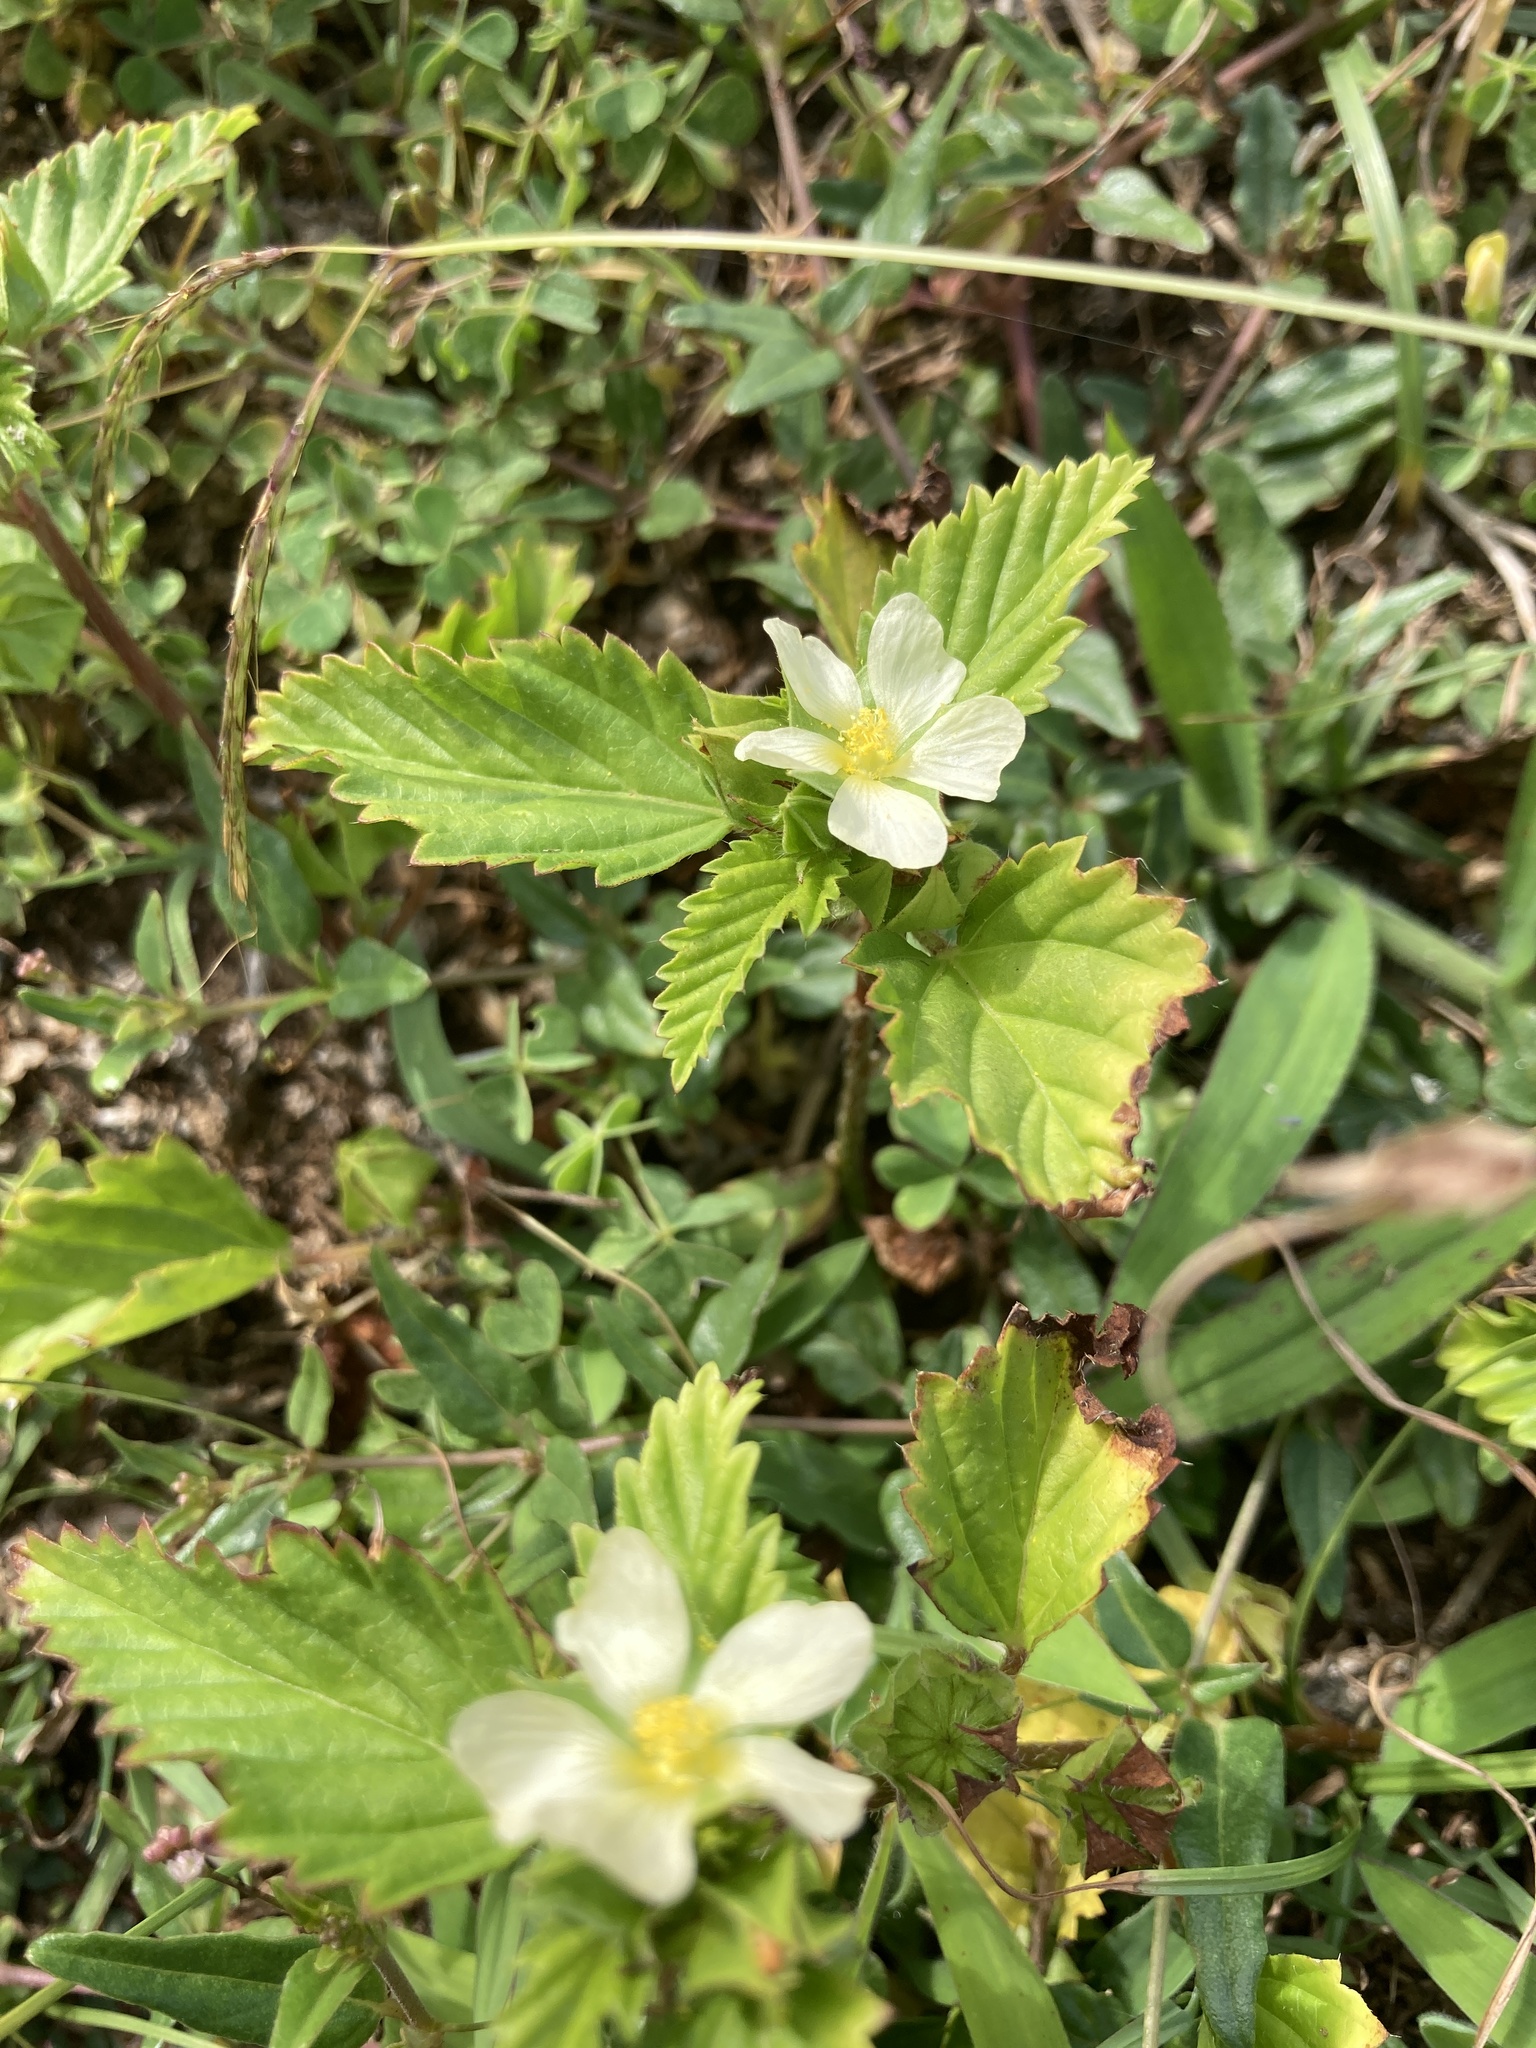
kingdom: Plantae
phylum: Tracheophyta
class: Magnoliopsida
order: Malvales
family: Malvaceae
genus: Malvastrum
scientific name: Malvastrum coromandelianum
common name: Threelobe false mallow
